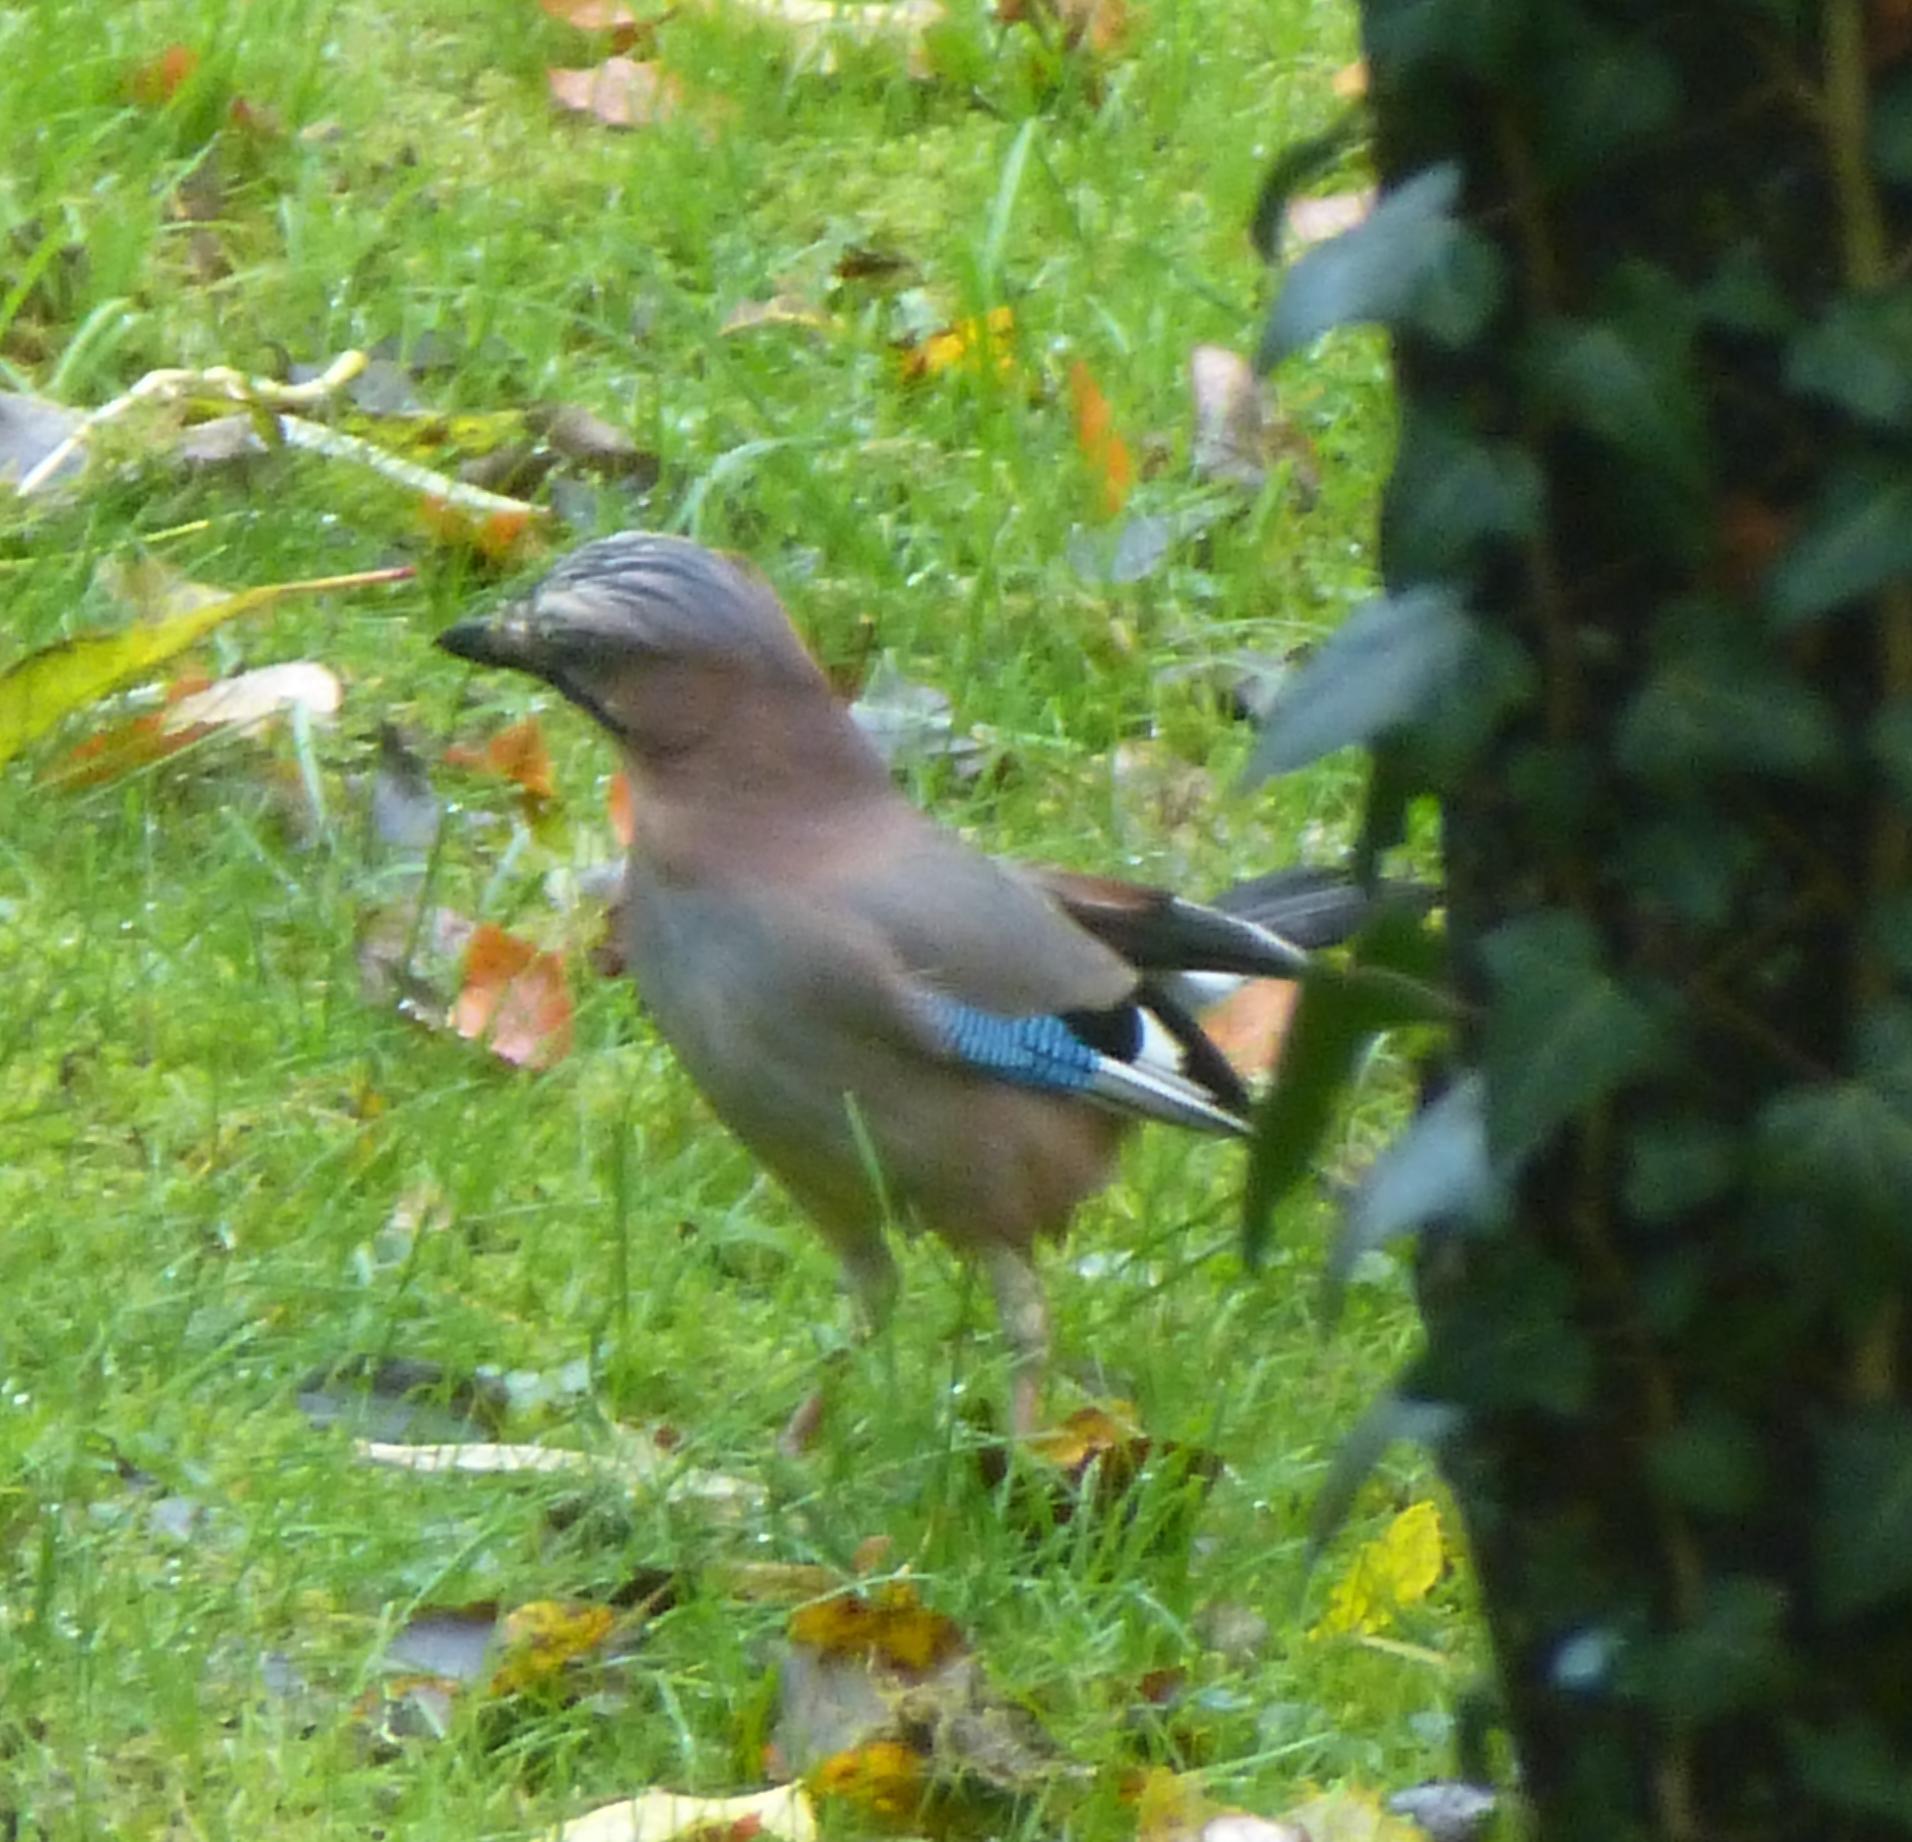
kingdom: Animalia
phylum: Chordata
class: Aves
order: Passeriformes
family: Corvidae
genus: Garrulus
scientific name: Garrulus glandarius
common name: Eurasian jay
